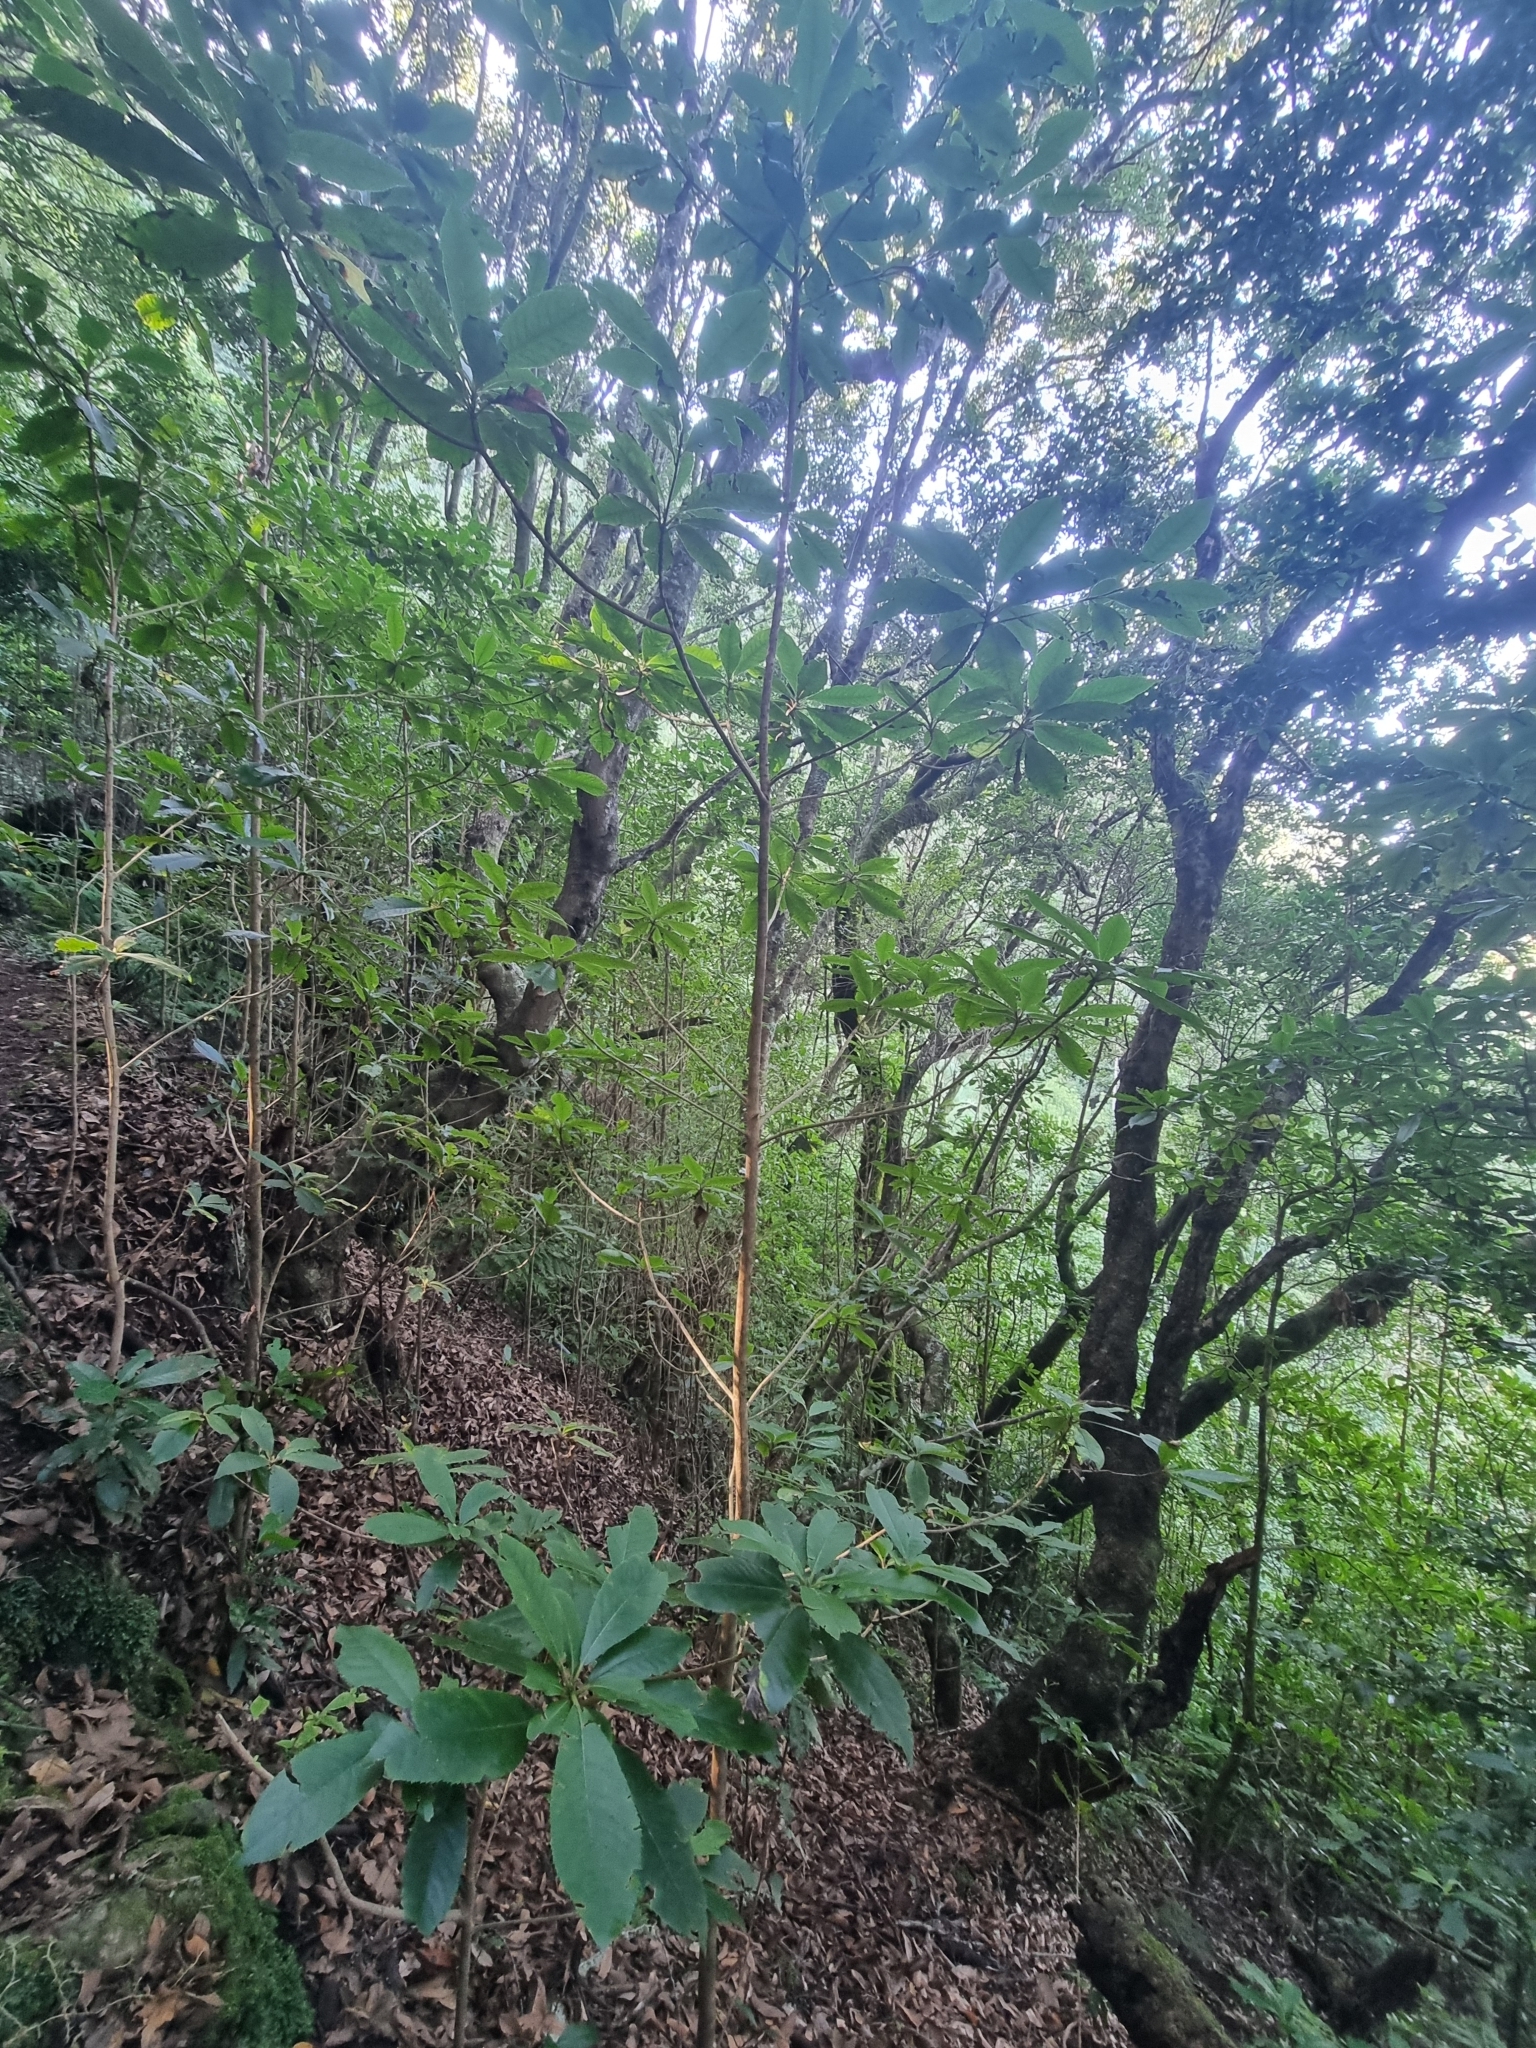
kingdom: Plantae
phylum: Tracheophyta
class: Magnoliopsida
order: Ericales
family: Clethraceae
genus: Clethra
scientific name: Clethra arborea
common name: Lily-of-the-valley-tree
